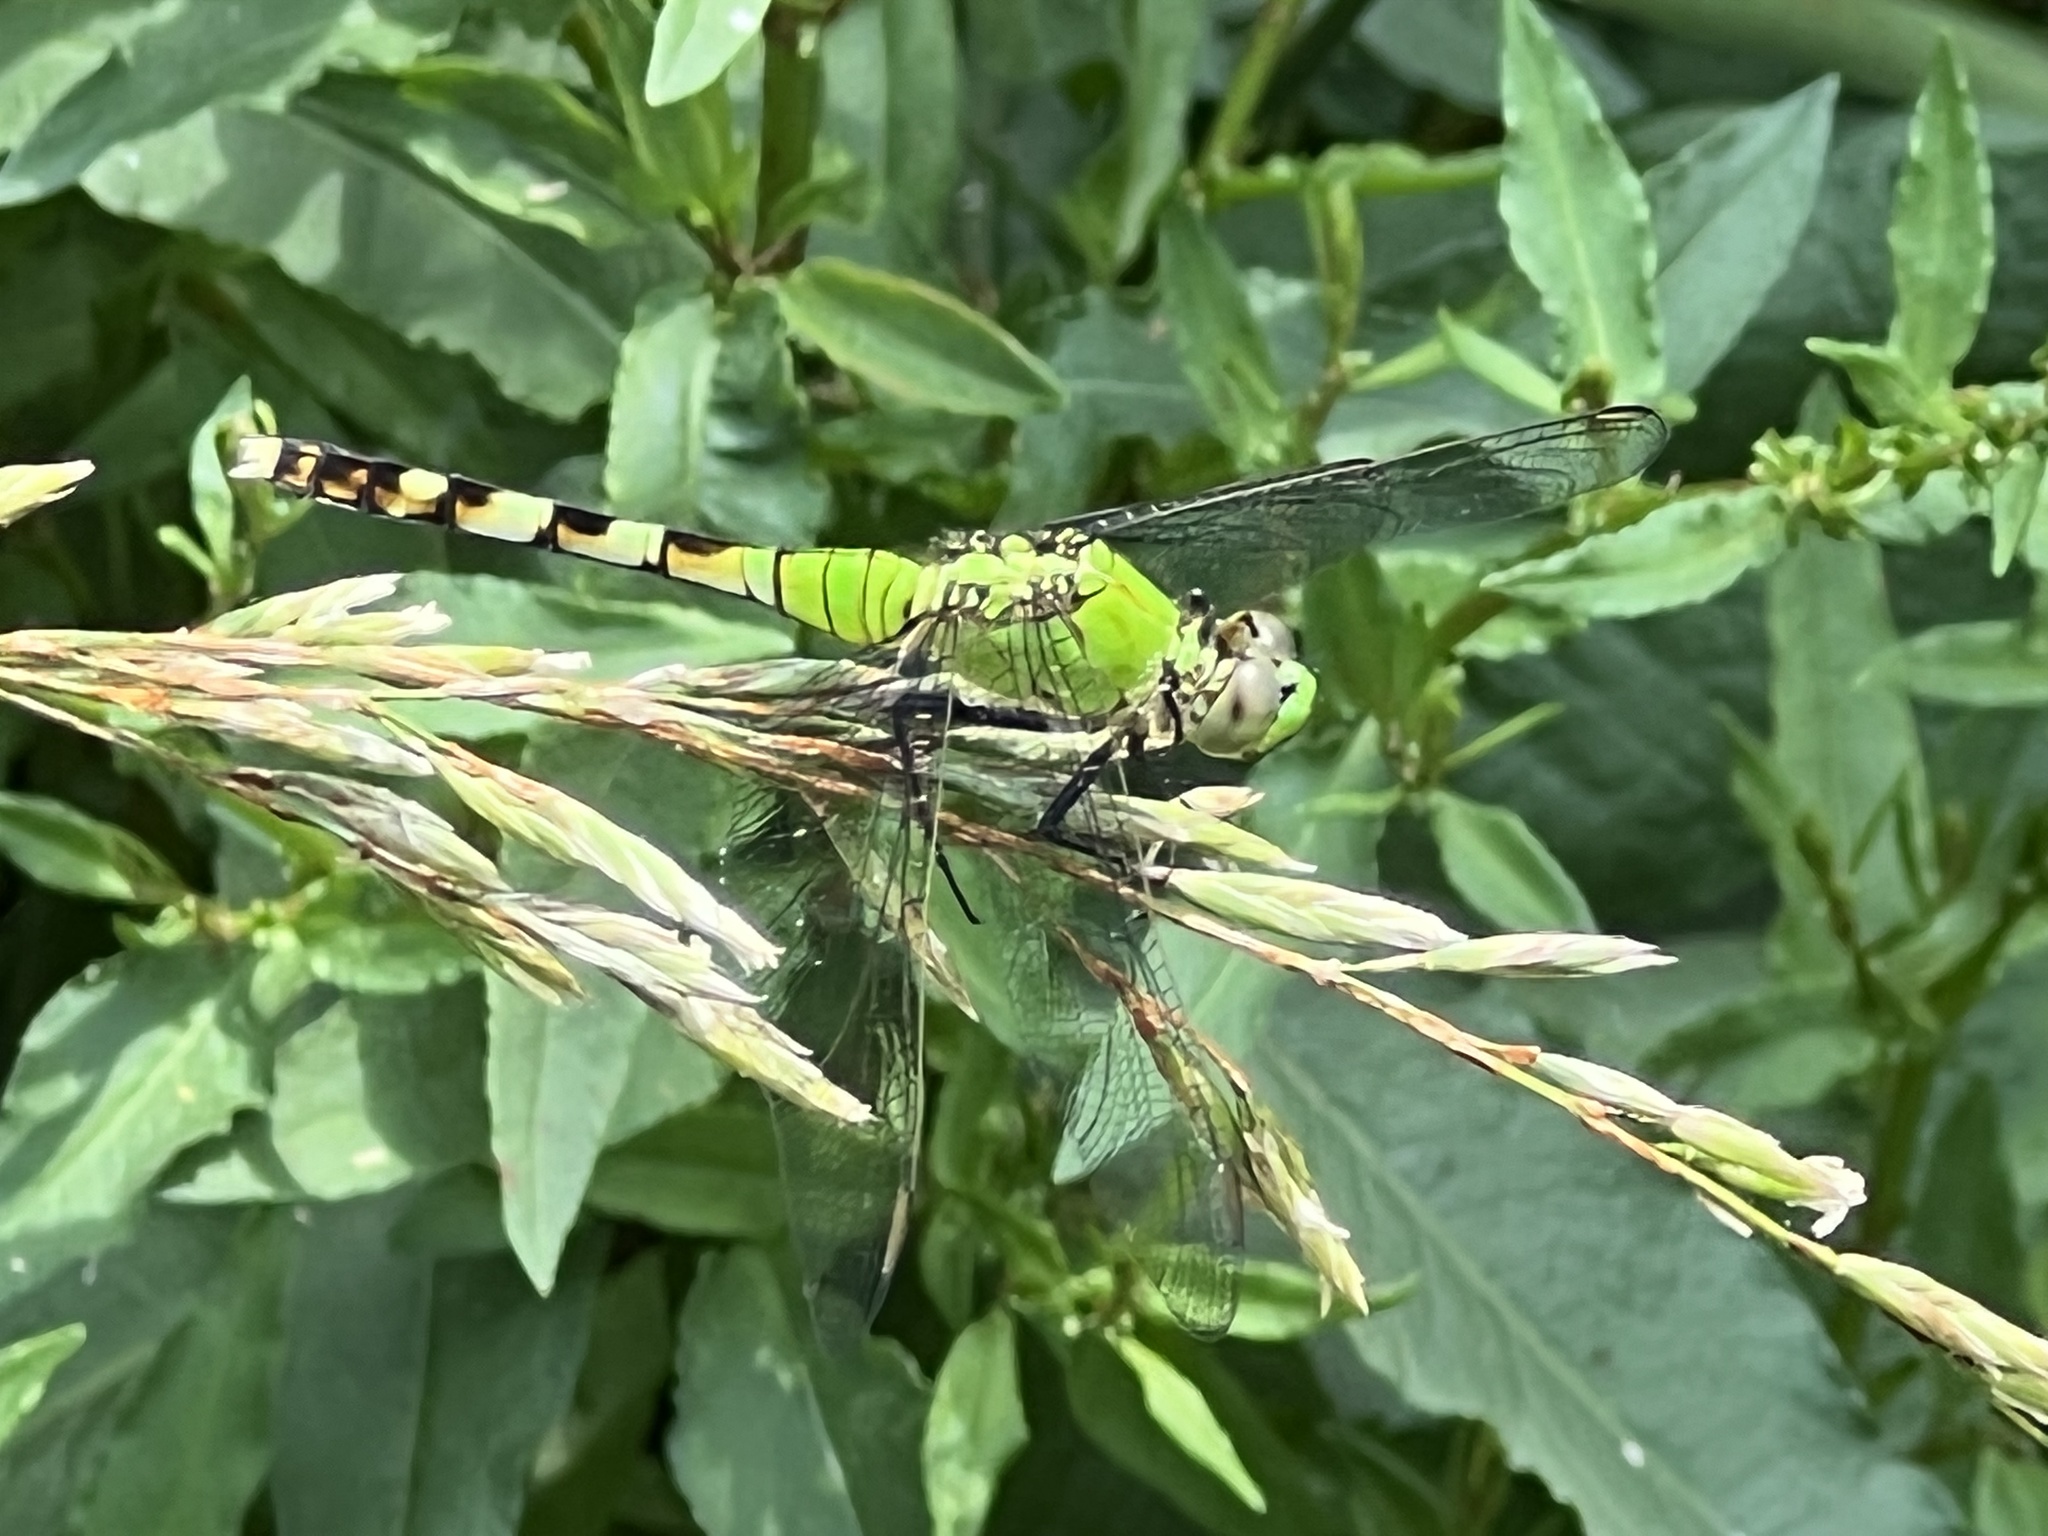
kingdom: Animalia
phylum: Arthropoda
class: Insecta
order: Odonata
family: Libellulidae
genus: Erythemis
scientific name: Erythemis simplicicollis
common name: Eastern pondhawk
